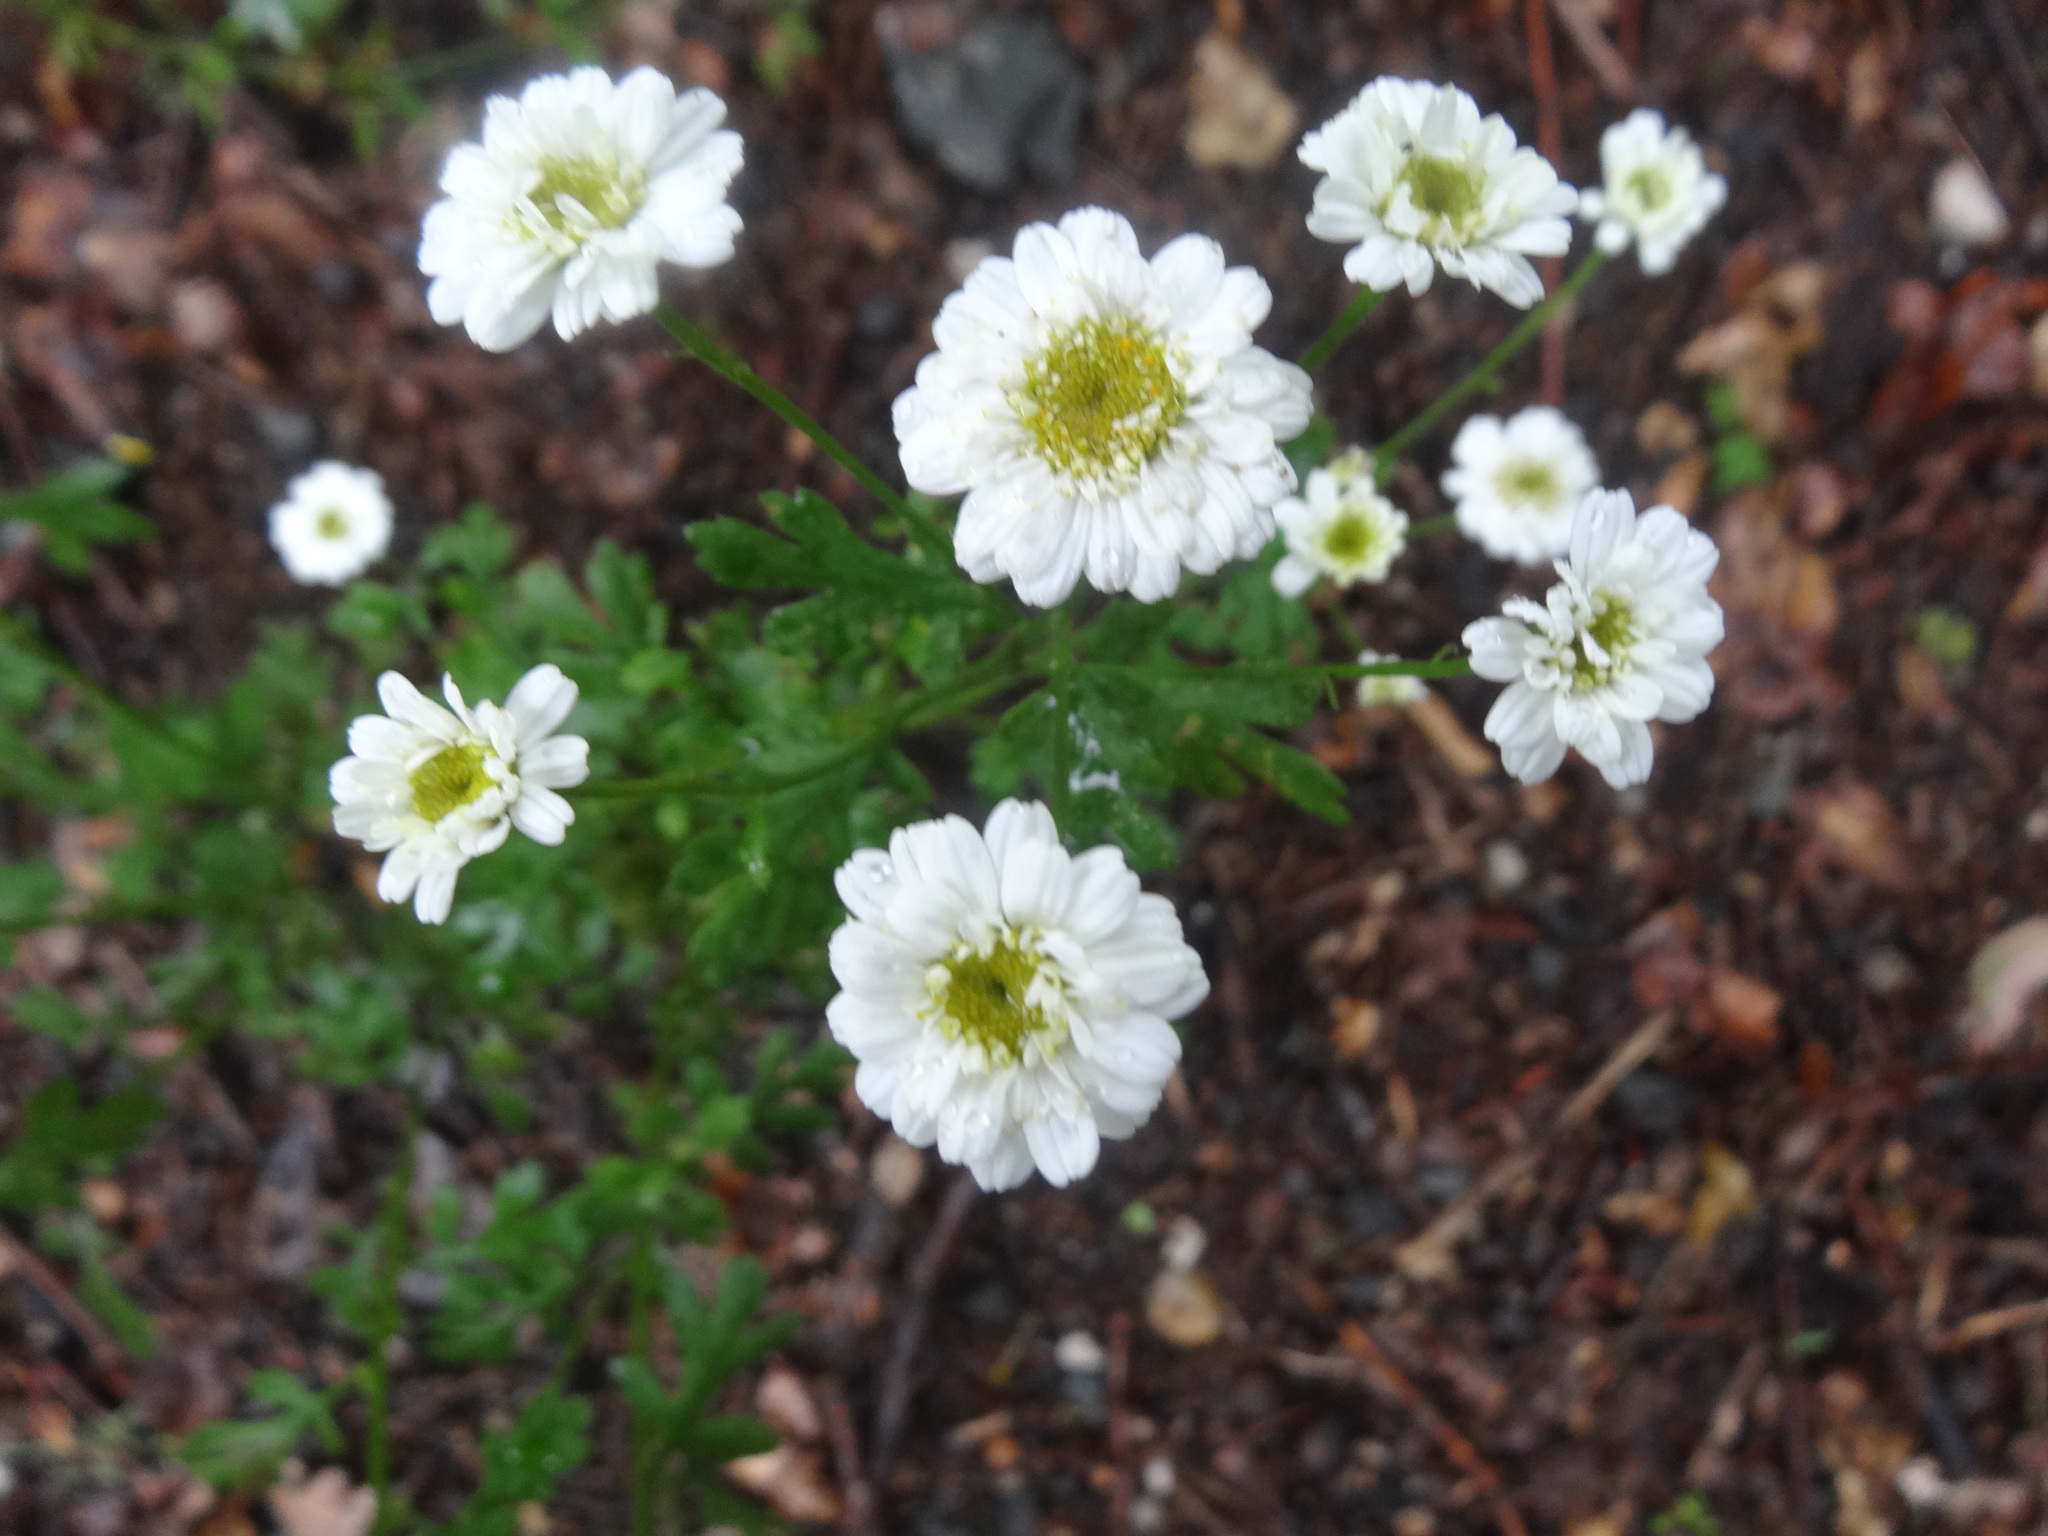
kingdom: Plantae
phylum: Tracheophyta
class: Magnoliopsida
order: Asterales
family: Asteraceae
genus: Tanacetum
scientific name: Tanacetum parthenium
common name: Feverfew
